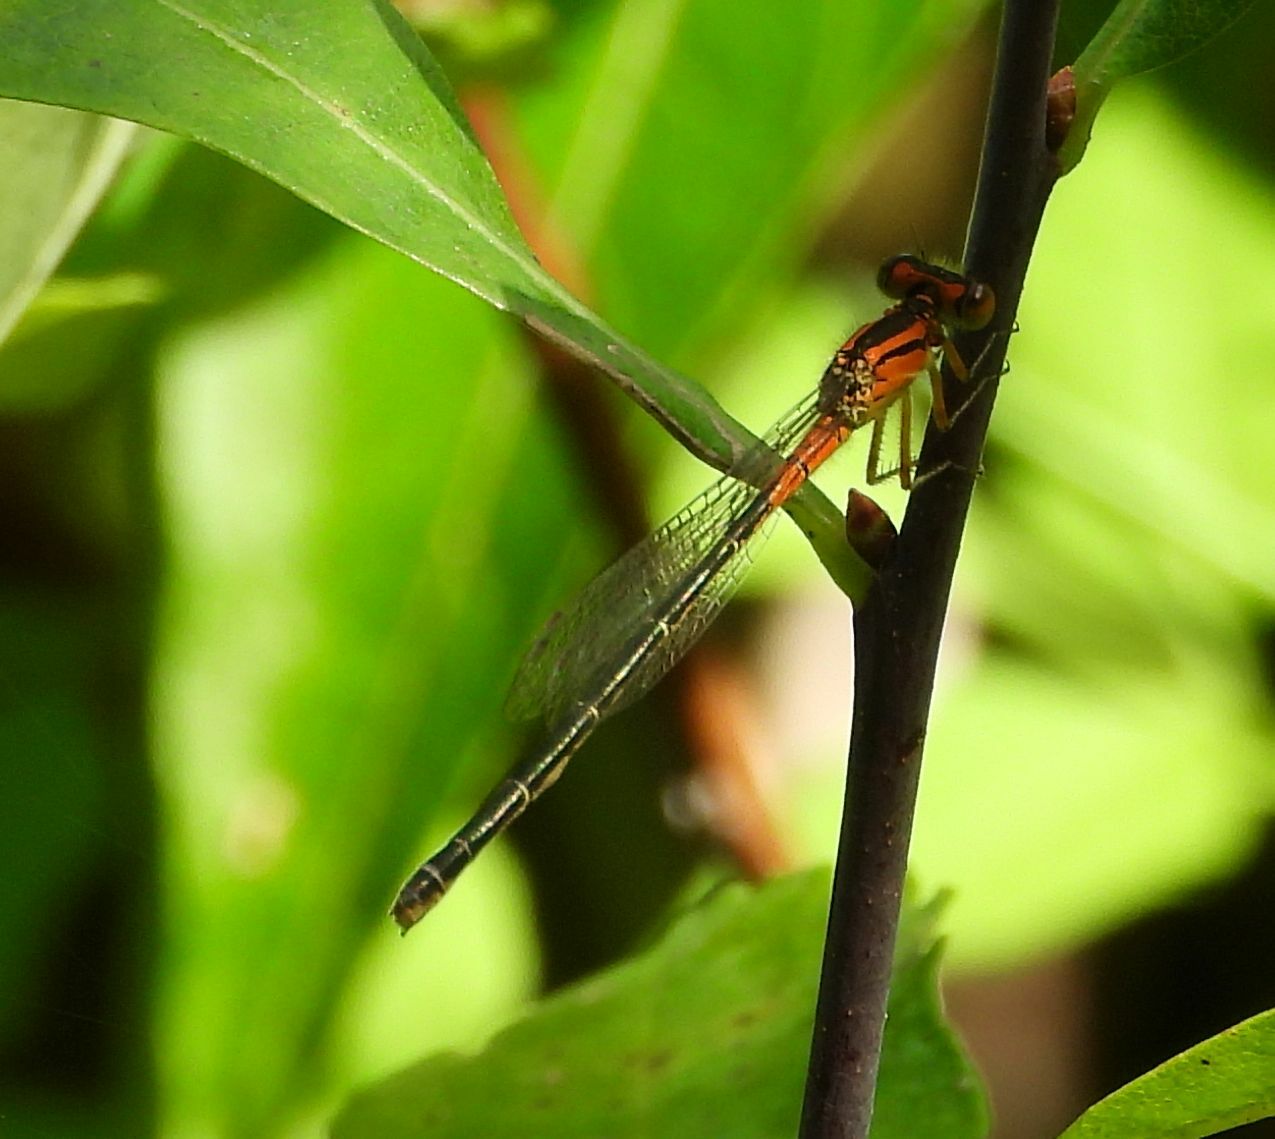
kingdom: Animalia
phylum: Arthropoda
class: Insecta
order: Odonata
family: Coenagrionidae
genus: Ischnura
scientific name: Ischnura verticalis
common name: Eastern forktail
